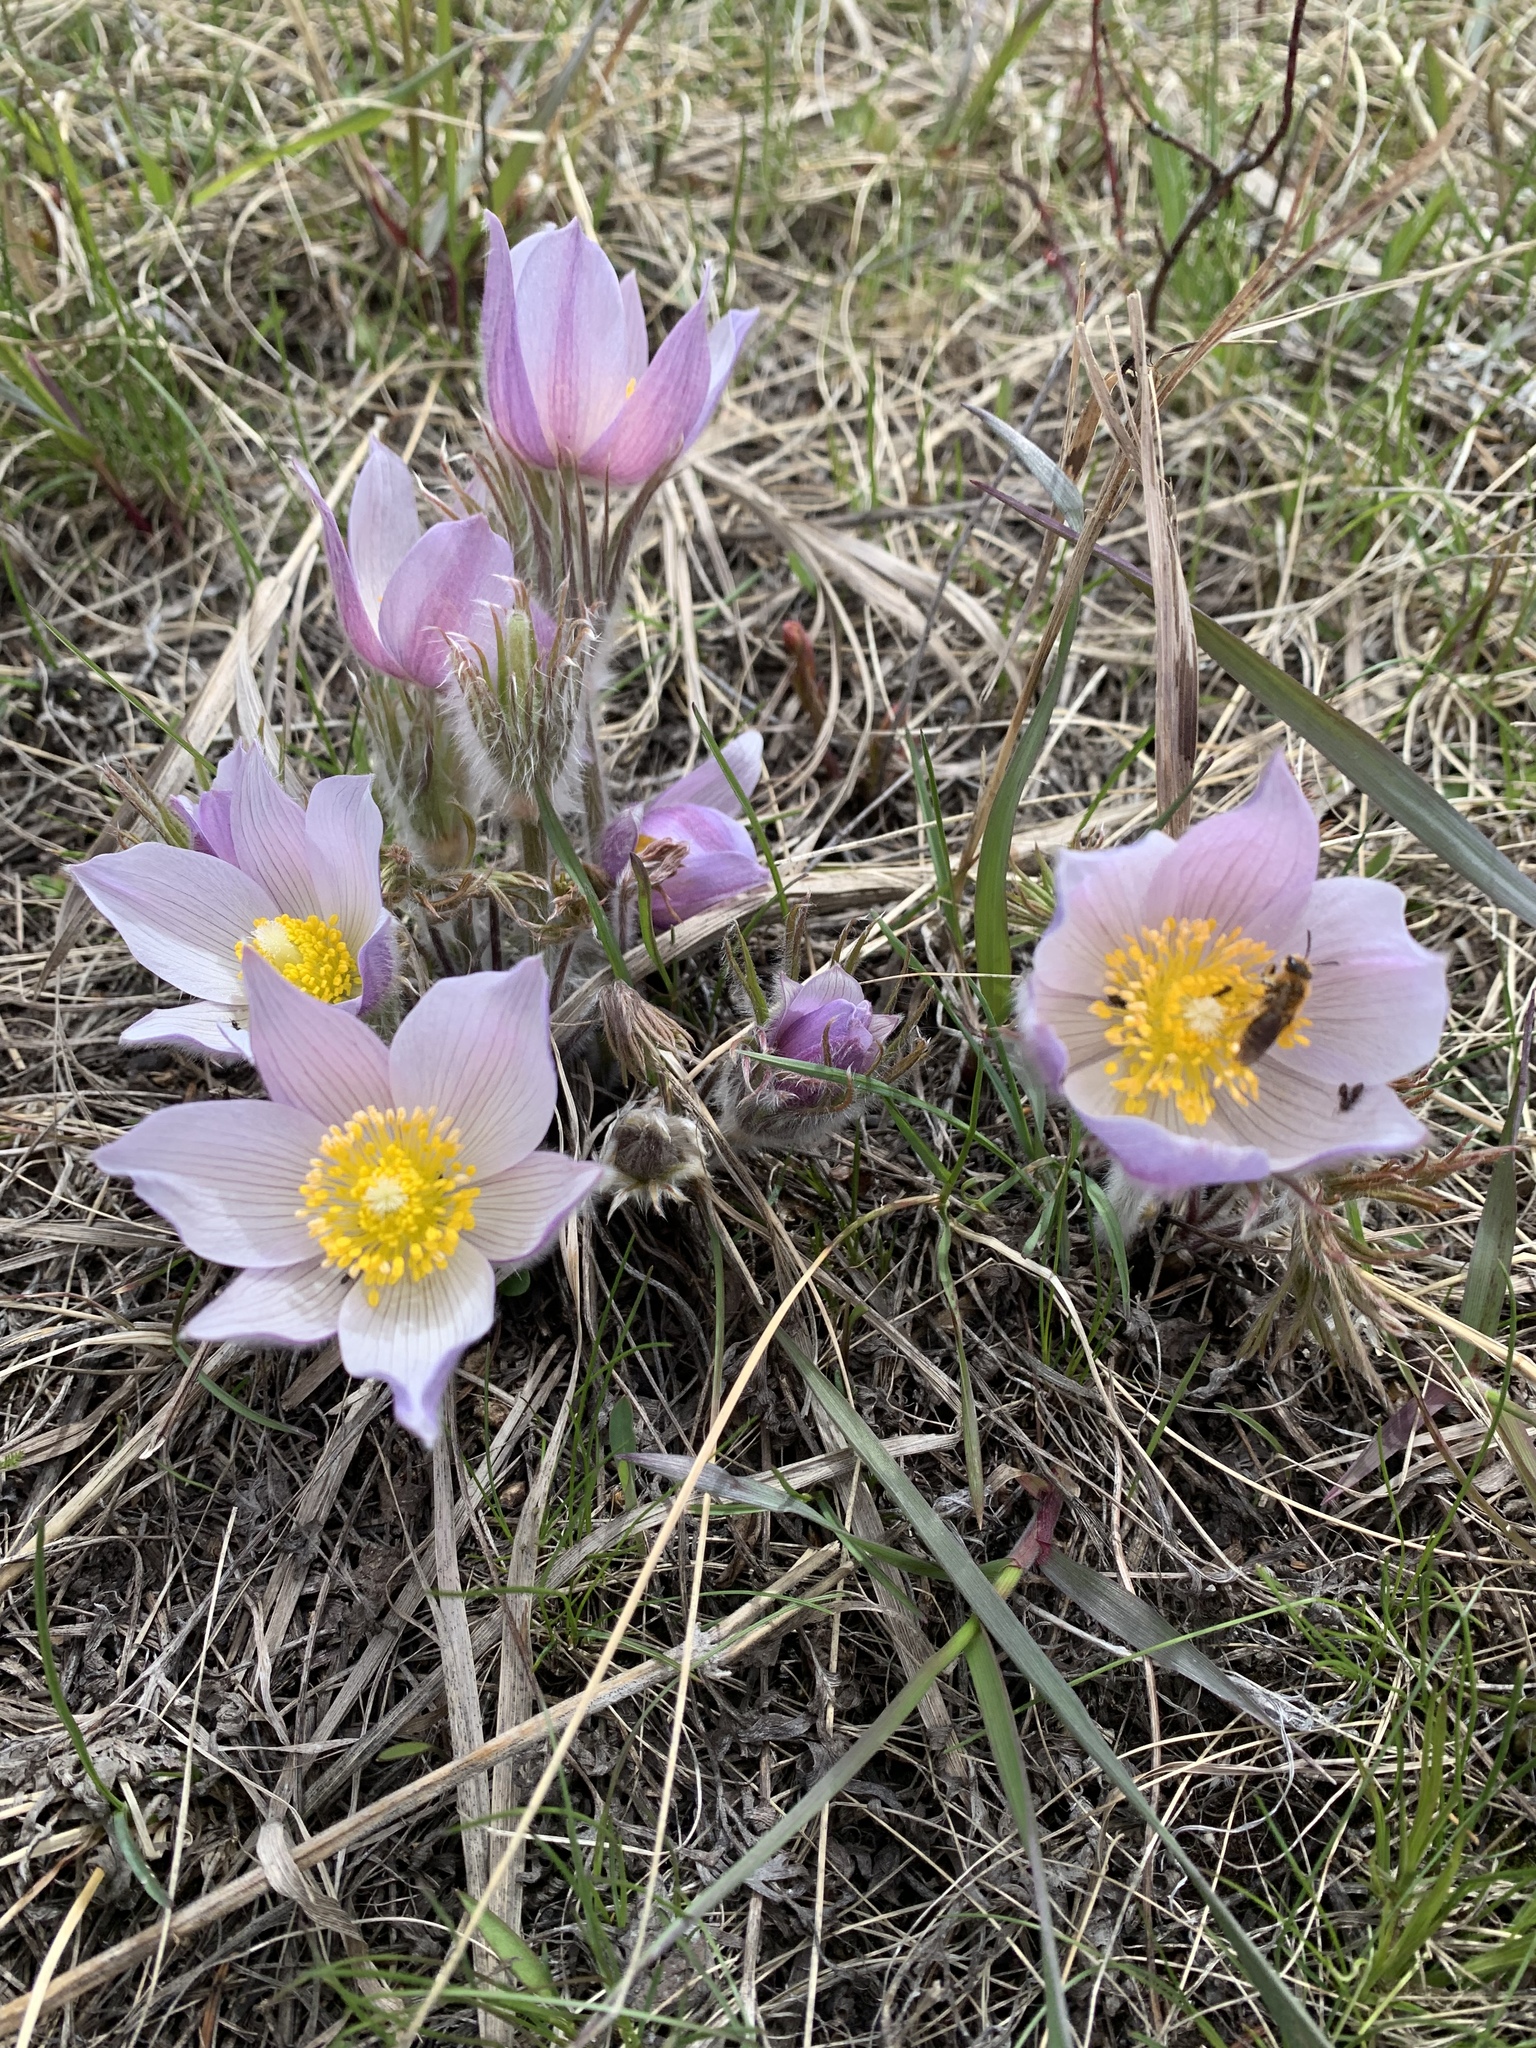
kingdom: Plantae
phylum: Tracheophyta
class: Magnoliopsida
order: Ranunculales
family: Ranunculaceae
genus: Pulsatilla
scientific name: Pulsatilla nuttalliana
